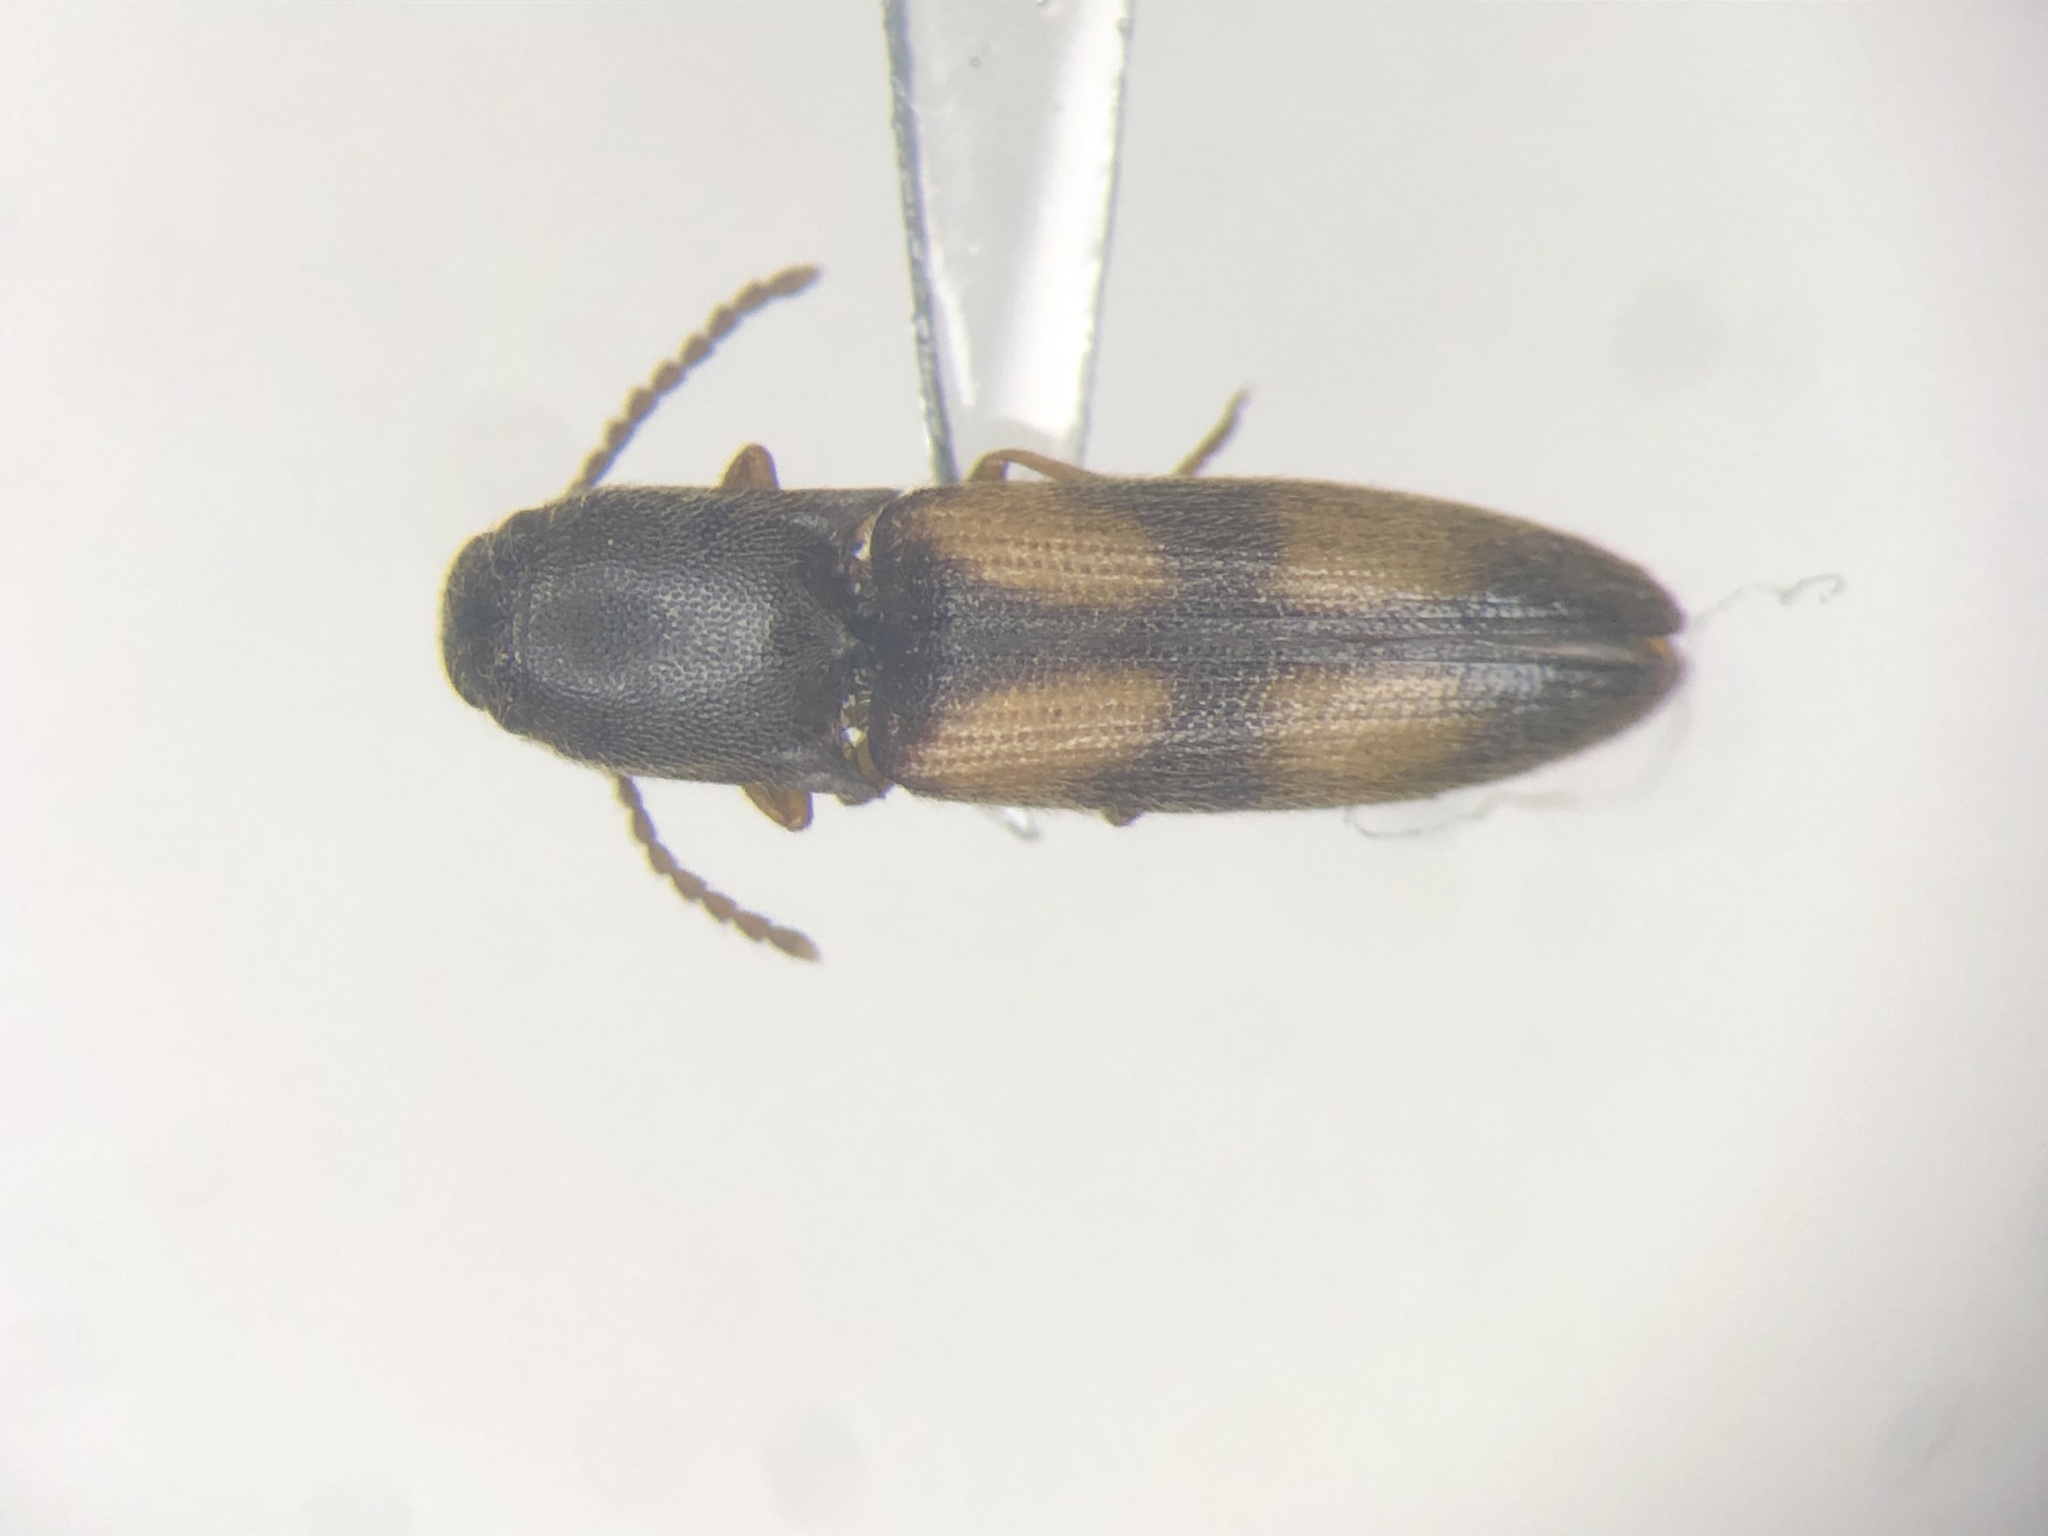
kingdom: Animalia
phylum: Arthropoda
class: Insecta
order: Coleoptera
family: Elateridae
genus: Idolus
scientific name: Idolus bigeminatus
